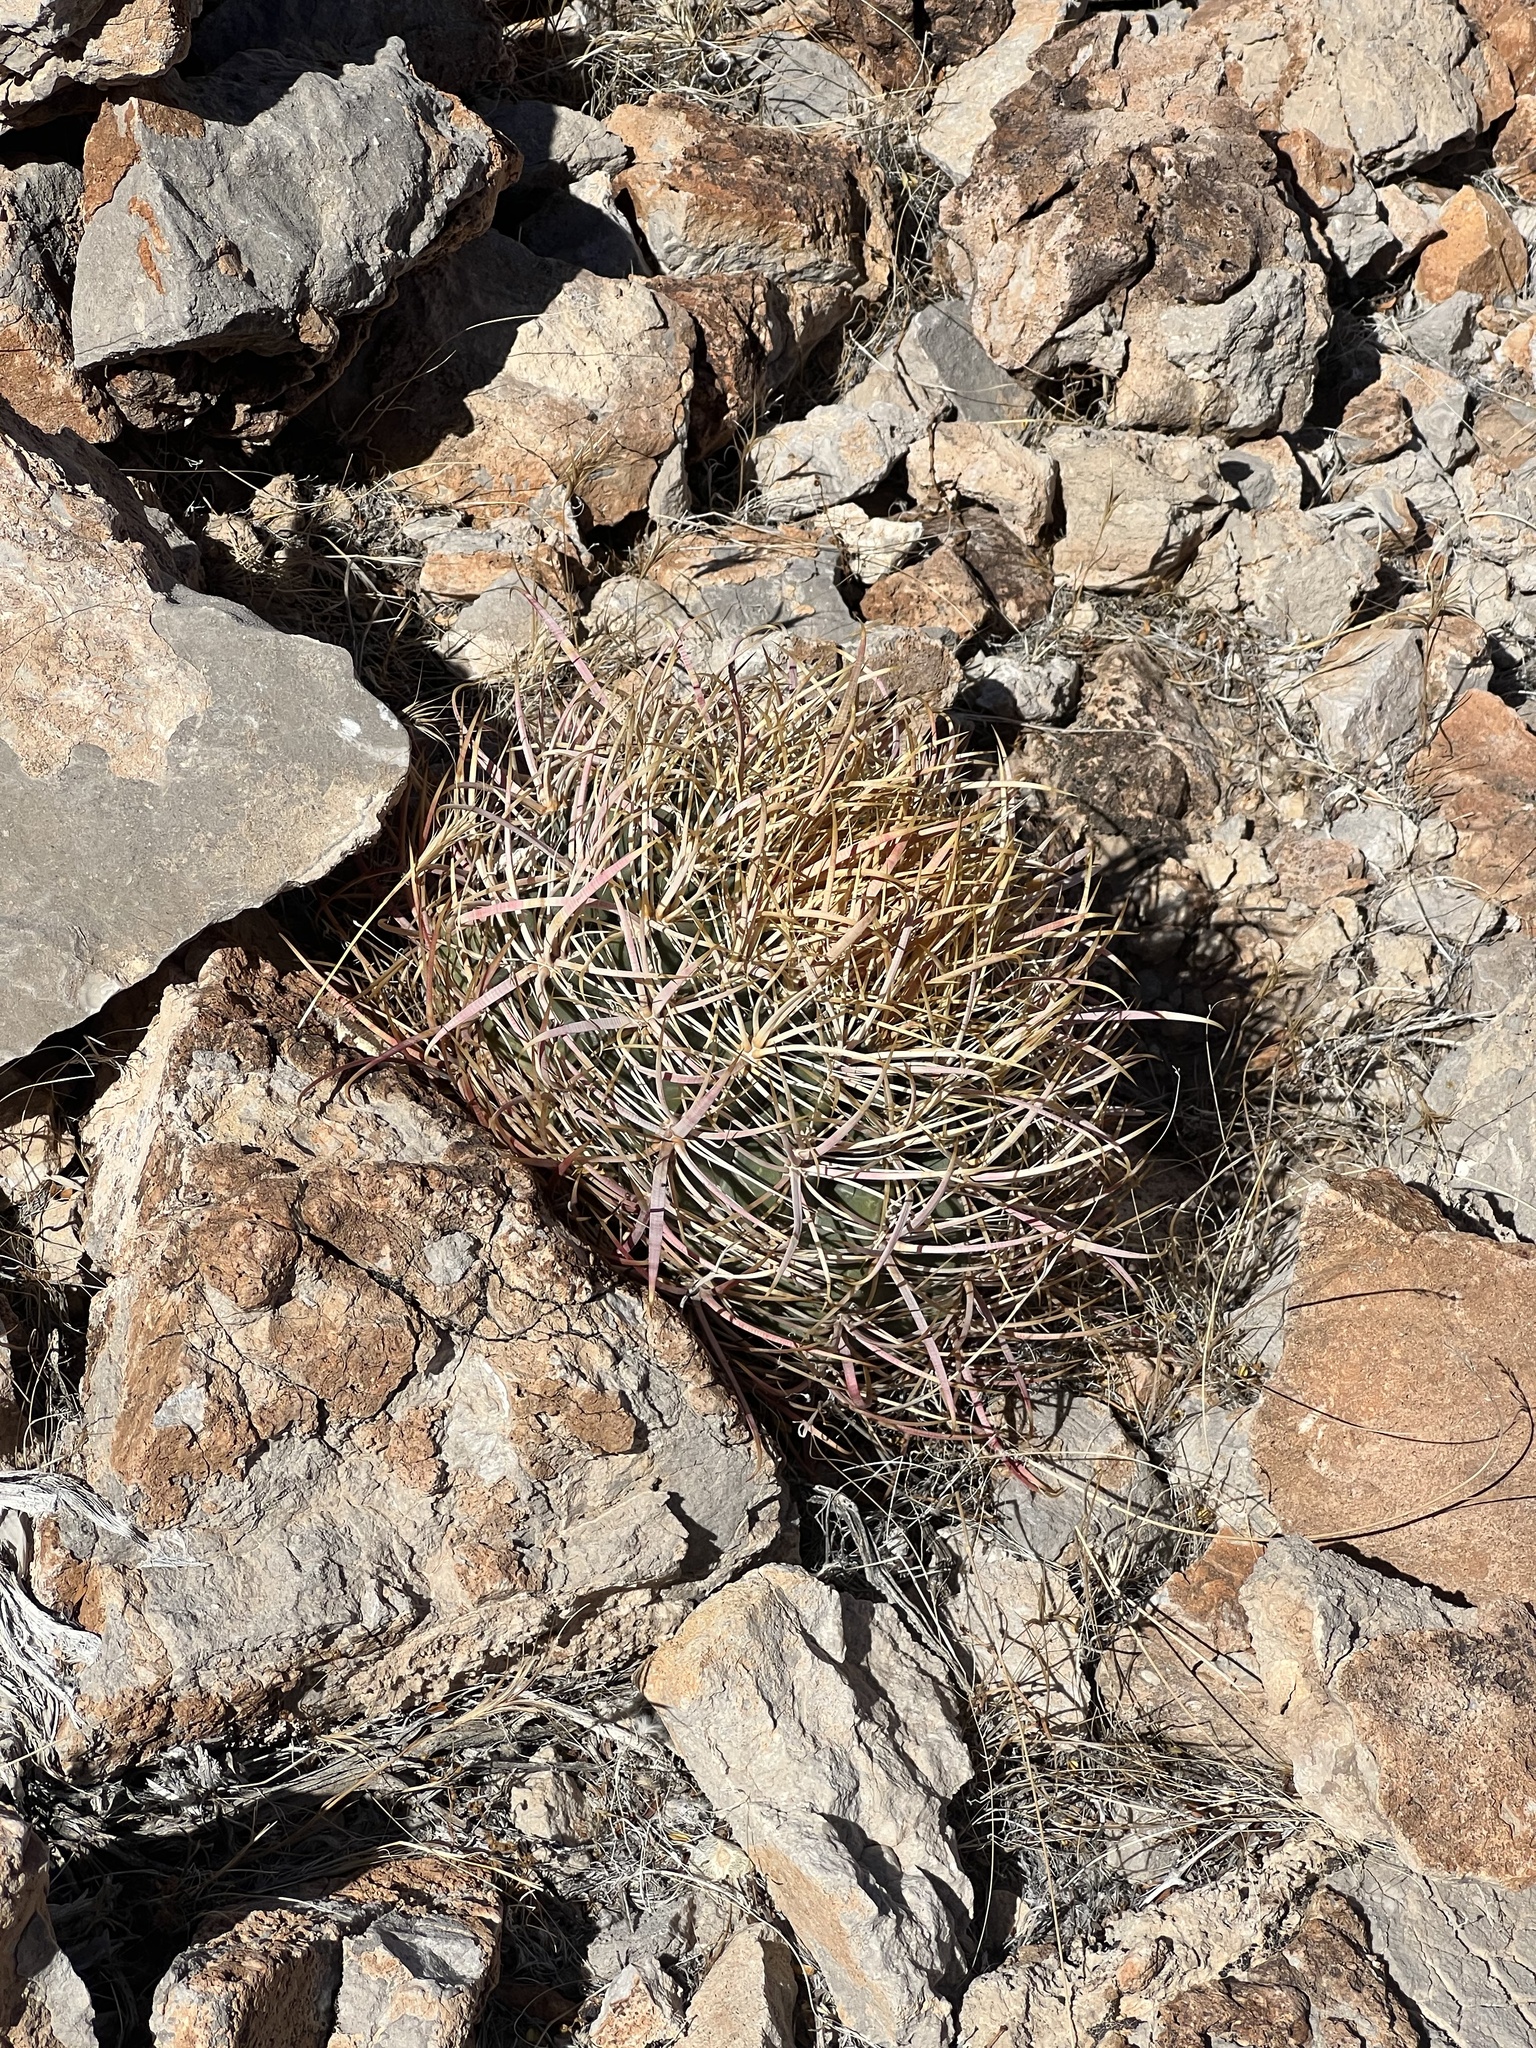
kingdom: Plantae
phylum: Tracheophyta
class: Magnoliopsida
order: Caryophyllales
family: Cactaceae
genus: Ferocactus
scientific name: Ferocactus cylindraceus
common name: California barrel cactus
